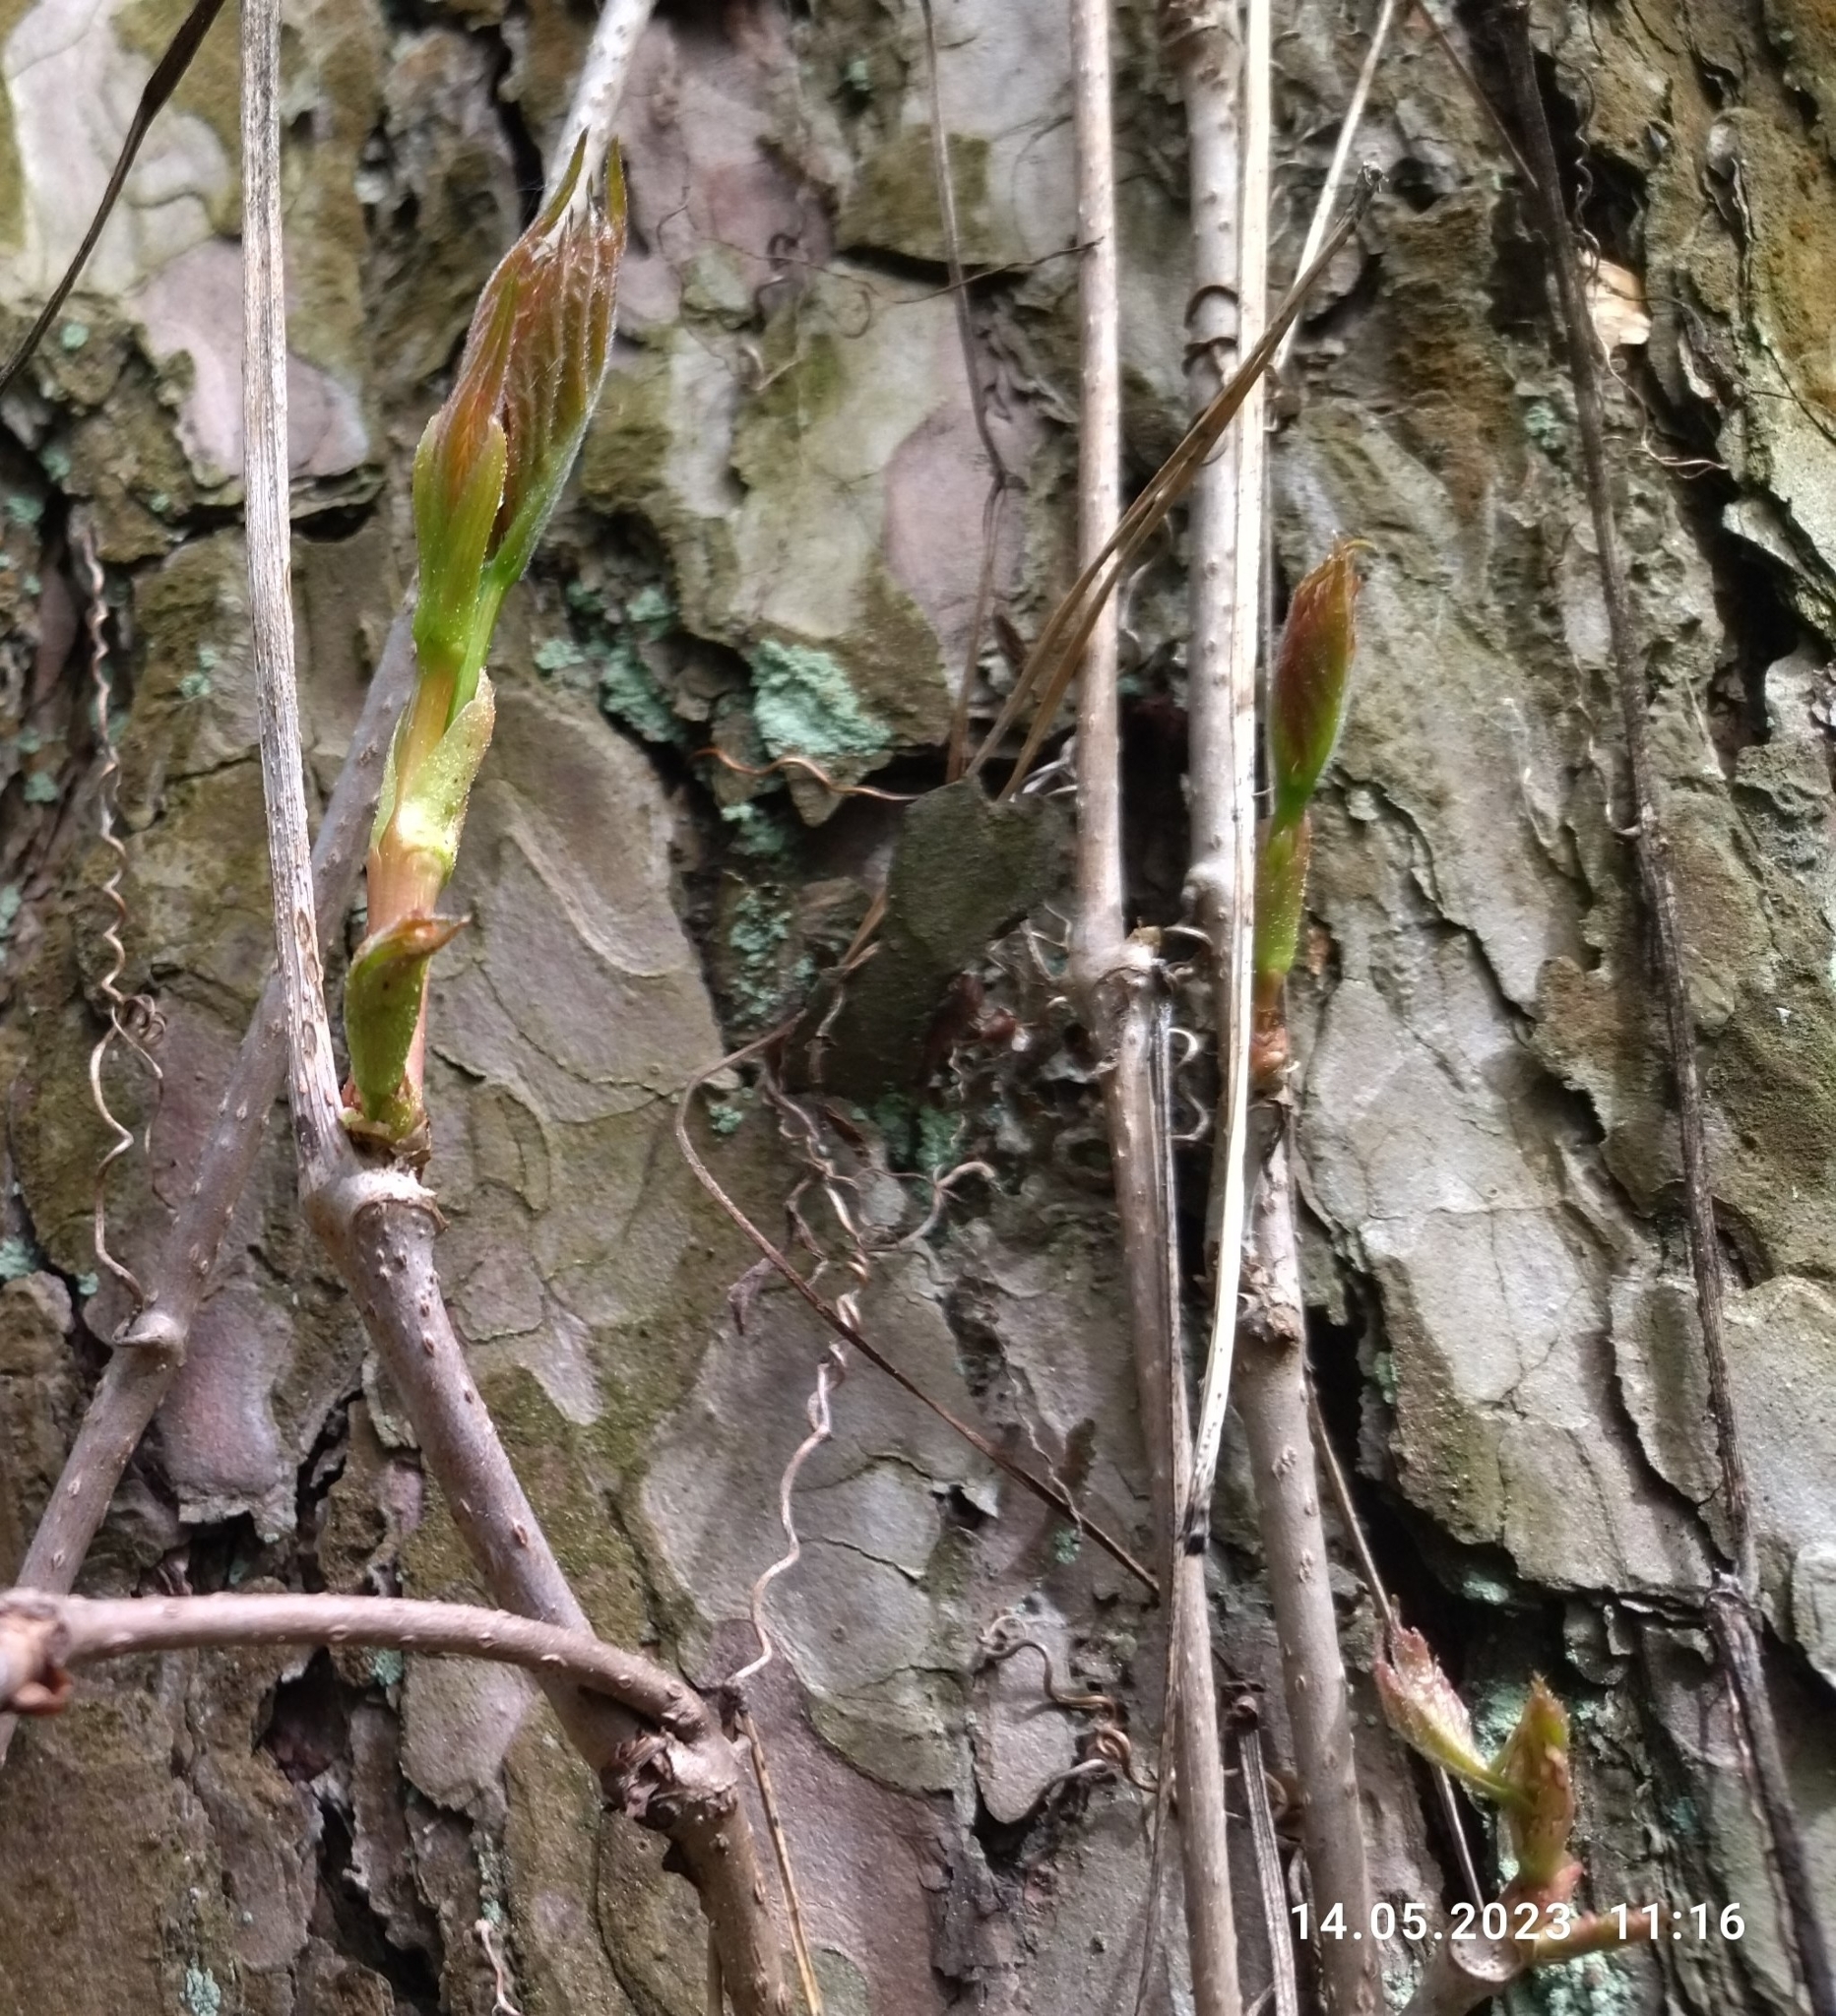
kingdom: Plantae
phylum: Tracheophyta
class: Magnoliopsida
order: Vitales
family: Vitaceae
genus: Parthenocissus
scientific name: Parthenocissus inserta
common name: False virginia-creeper
